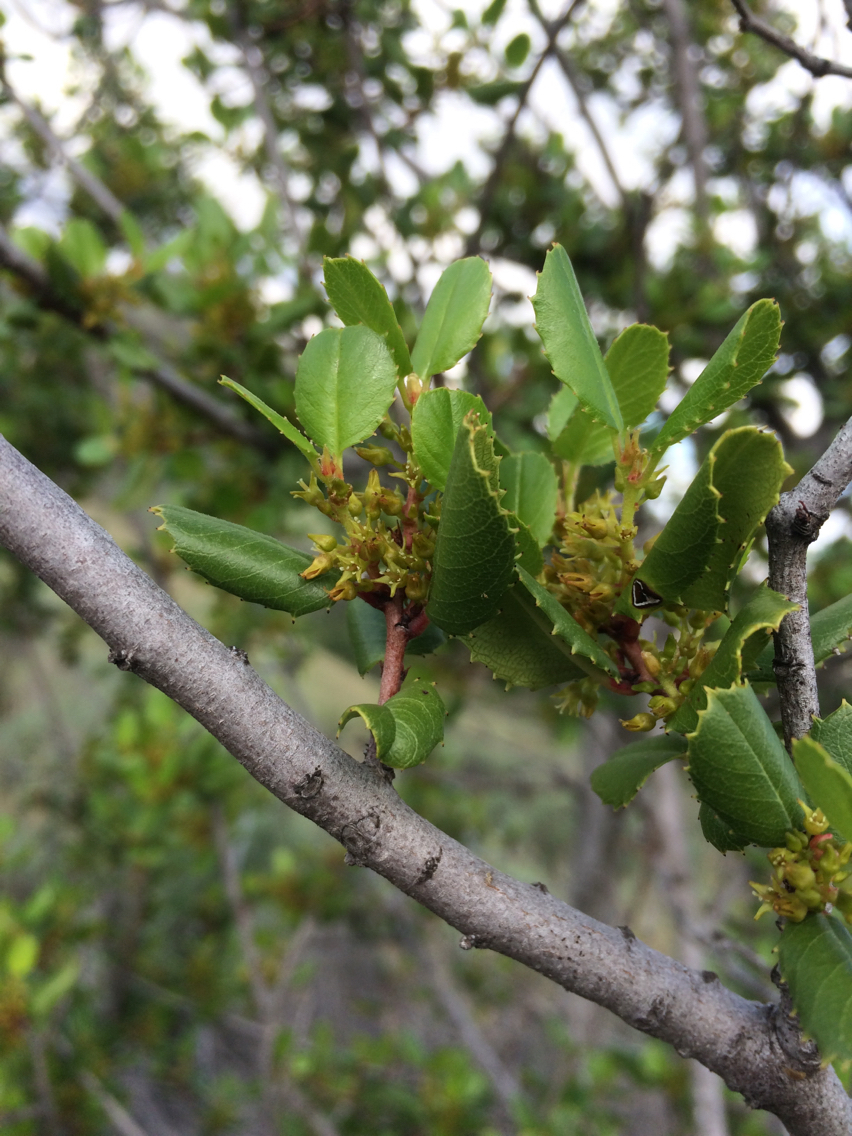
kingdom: Plantae
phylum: Tracheophyta
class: Magnoliopsida
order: Rosales
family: Rhamnaceae
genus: Endotropis
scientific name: Endotropis crocea
